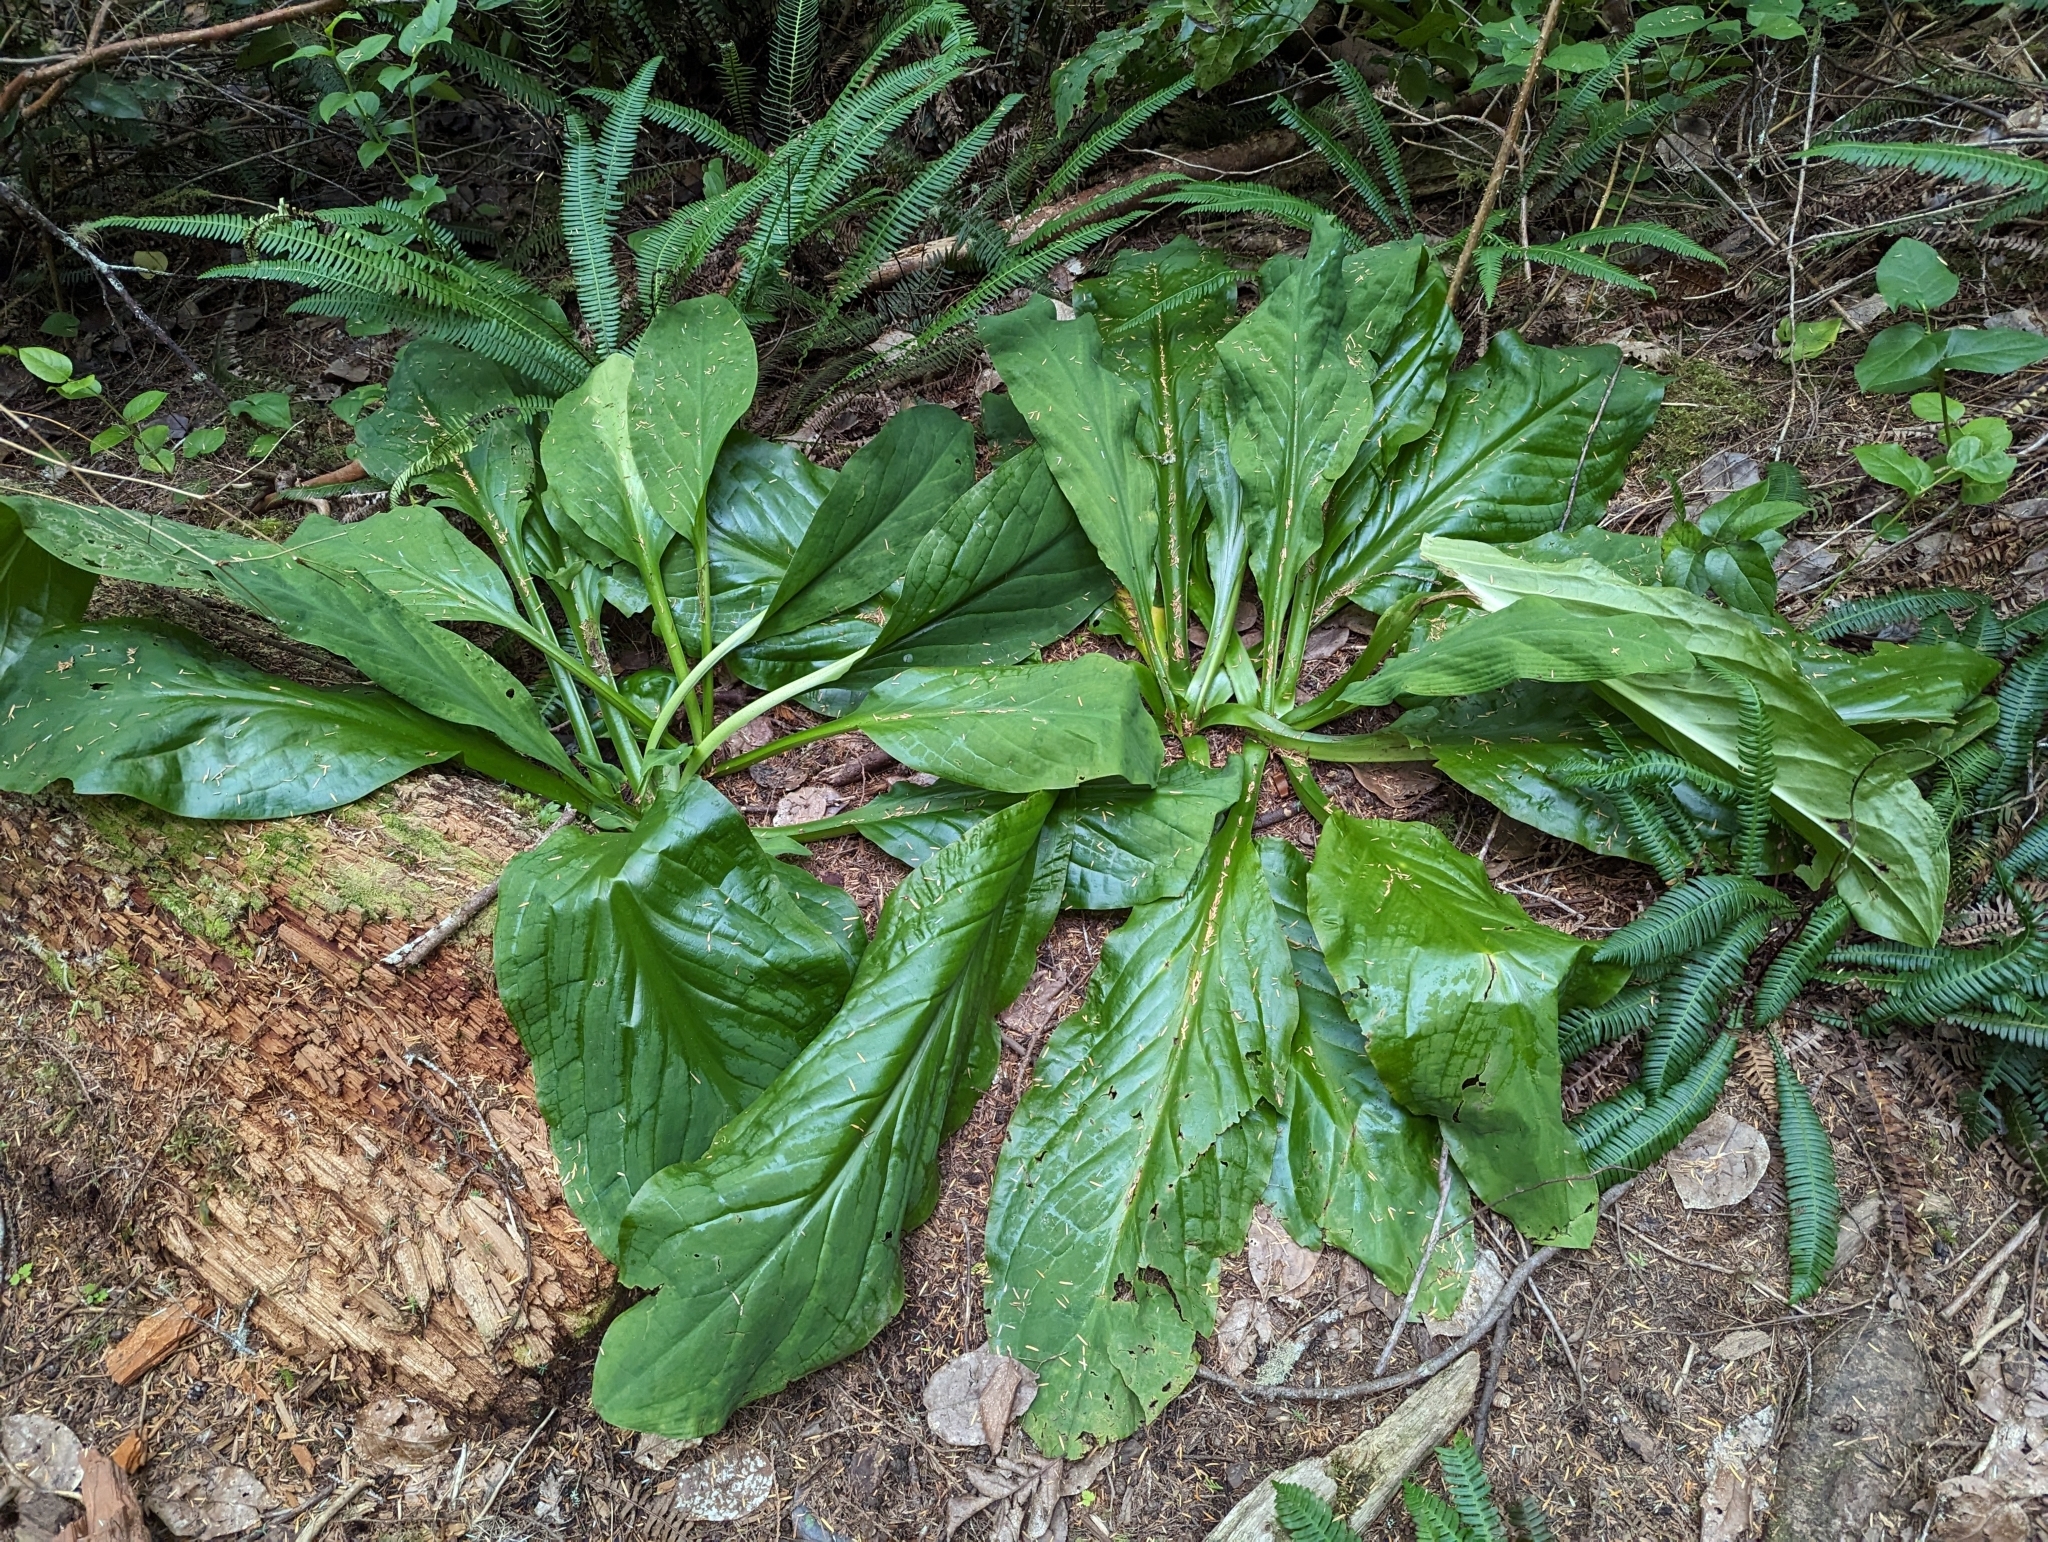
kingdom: Plantae
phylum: Tracheophyta
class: Liliopsida
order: Alismatales
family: Araceae
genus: Lysichiton
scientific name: Lysichiton americanus
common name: American skunk cabbage
